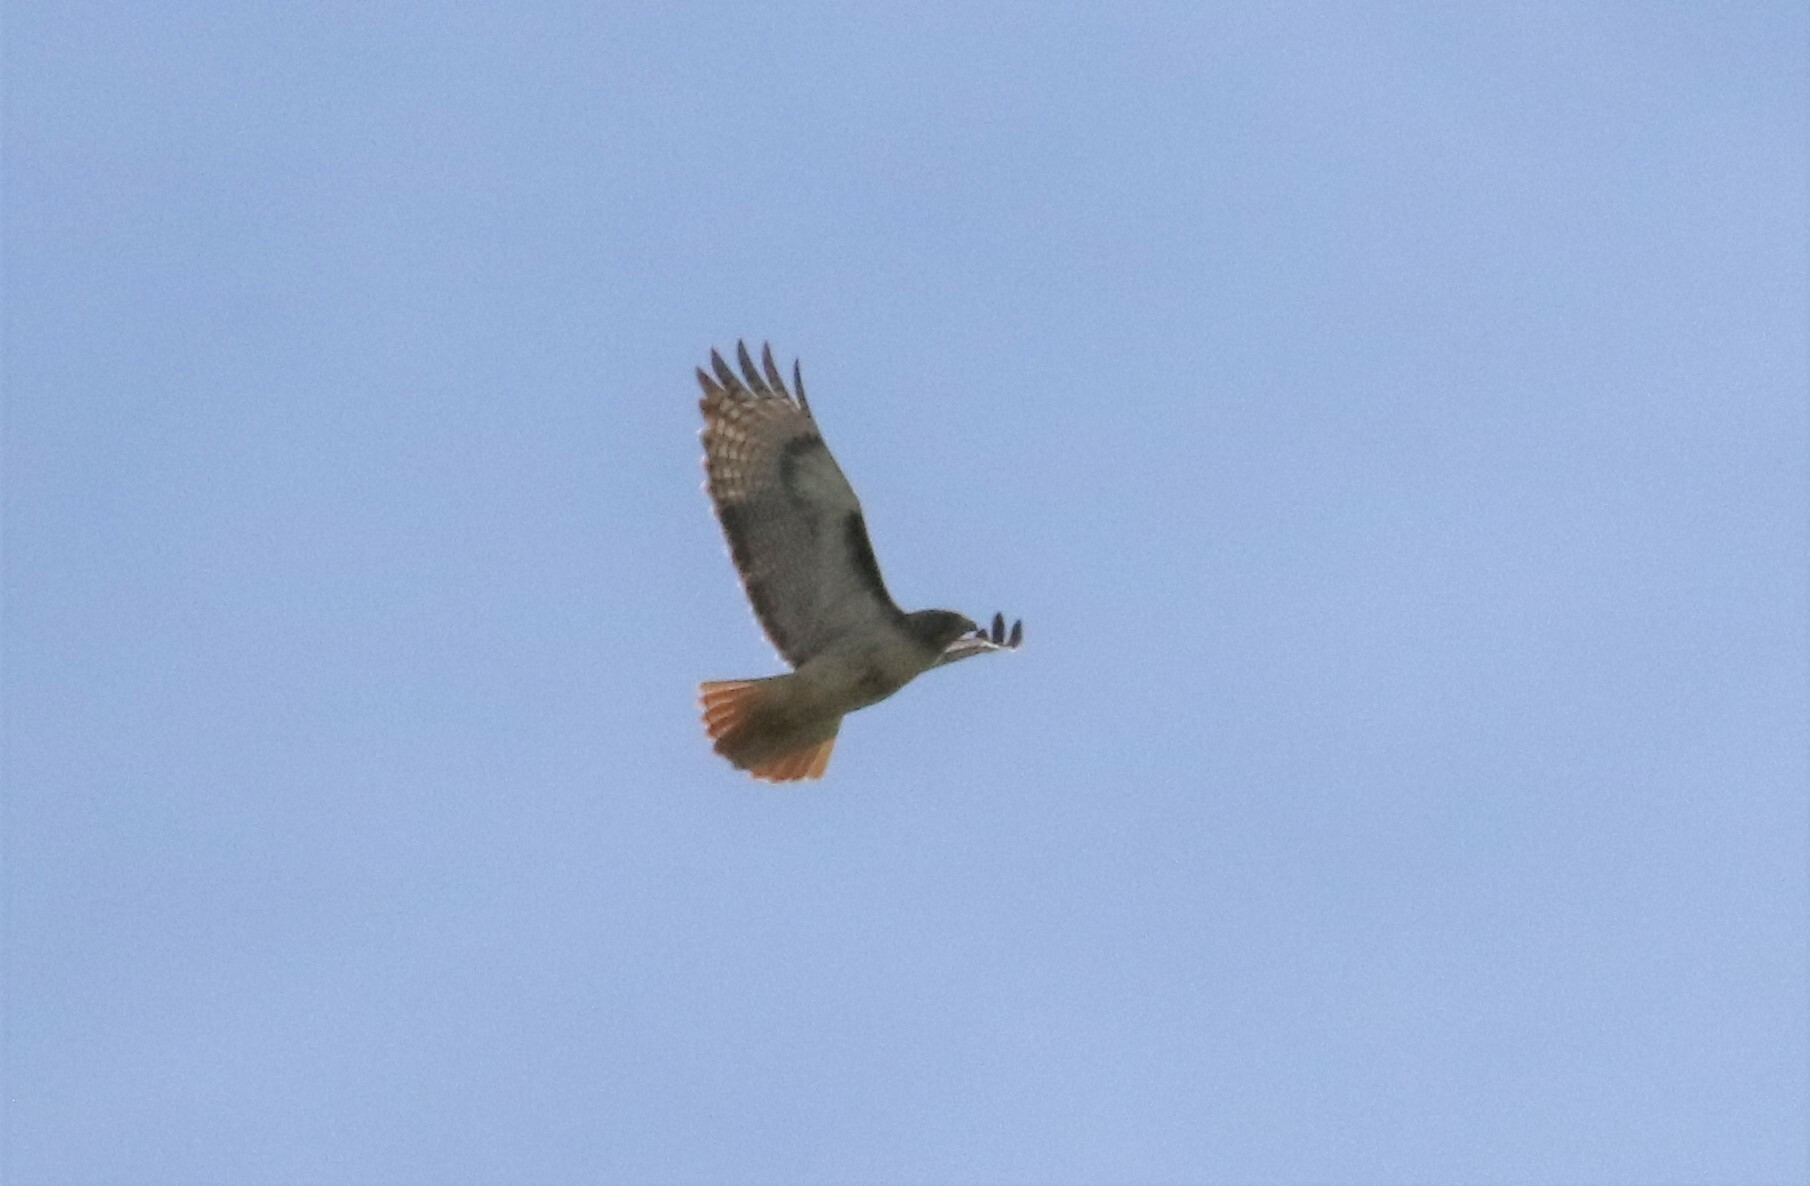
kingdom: Animalia
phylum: Chordata
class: Aves
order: Accipitriformes
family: Accipitridae
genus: Buteo
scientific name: Buteo jamaicensis
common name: Red-tailed hawk
